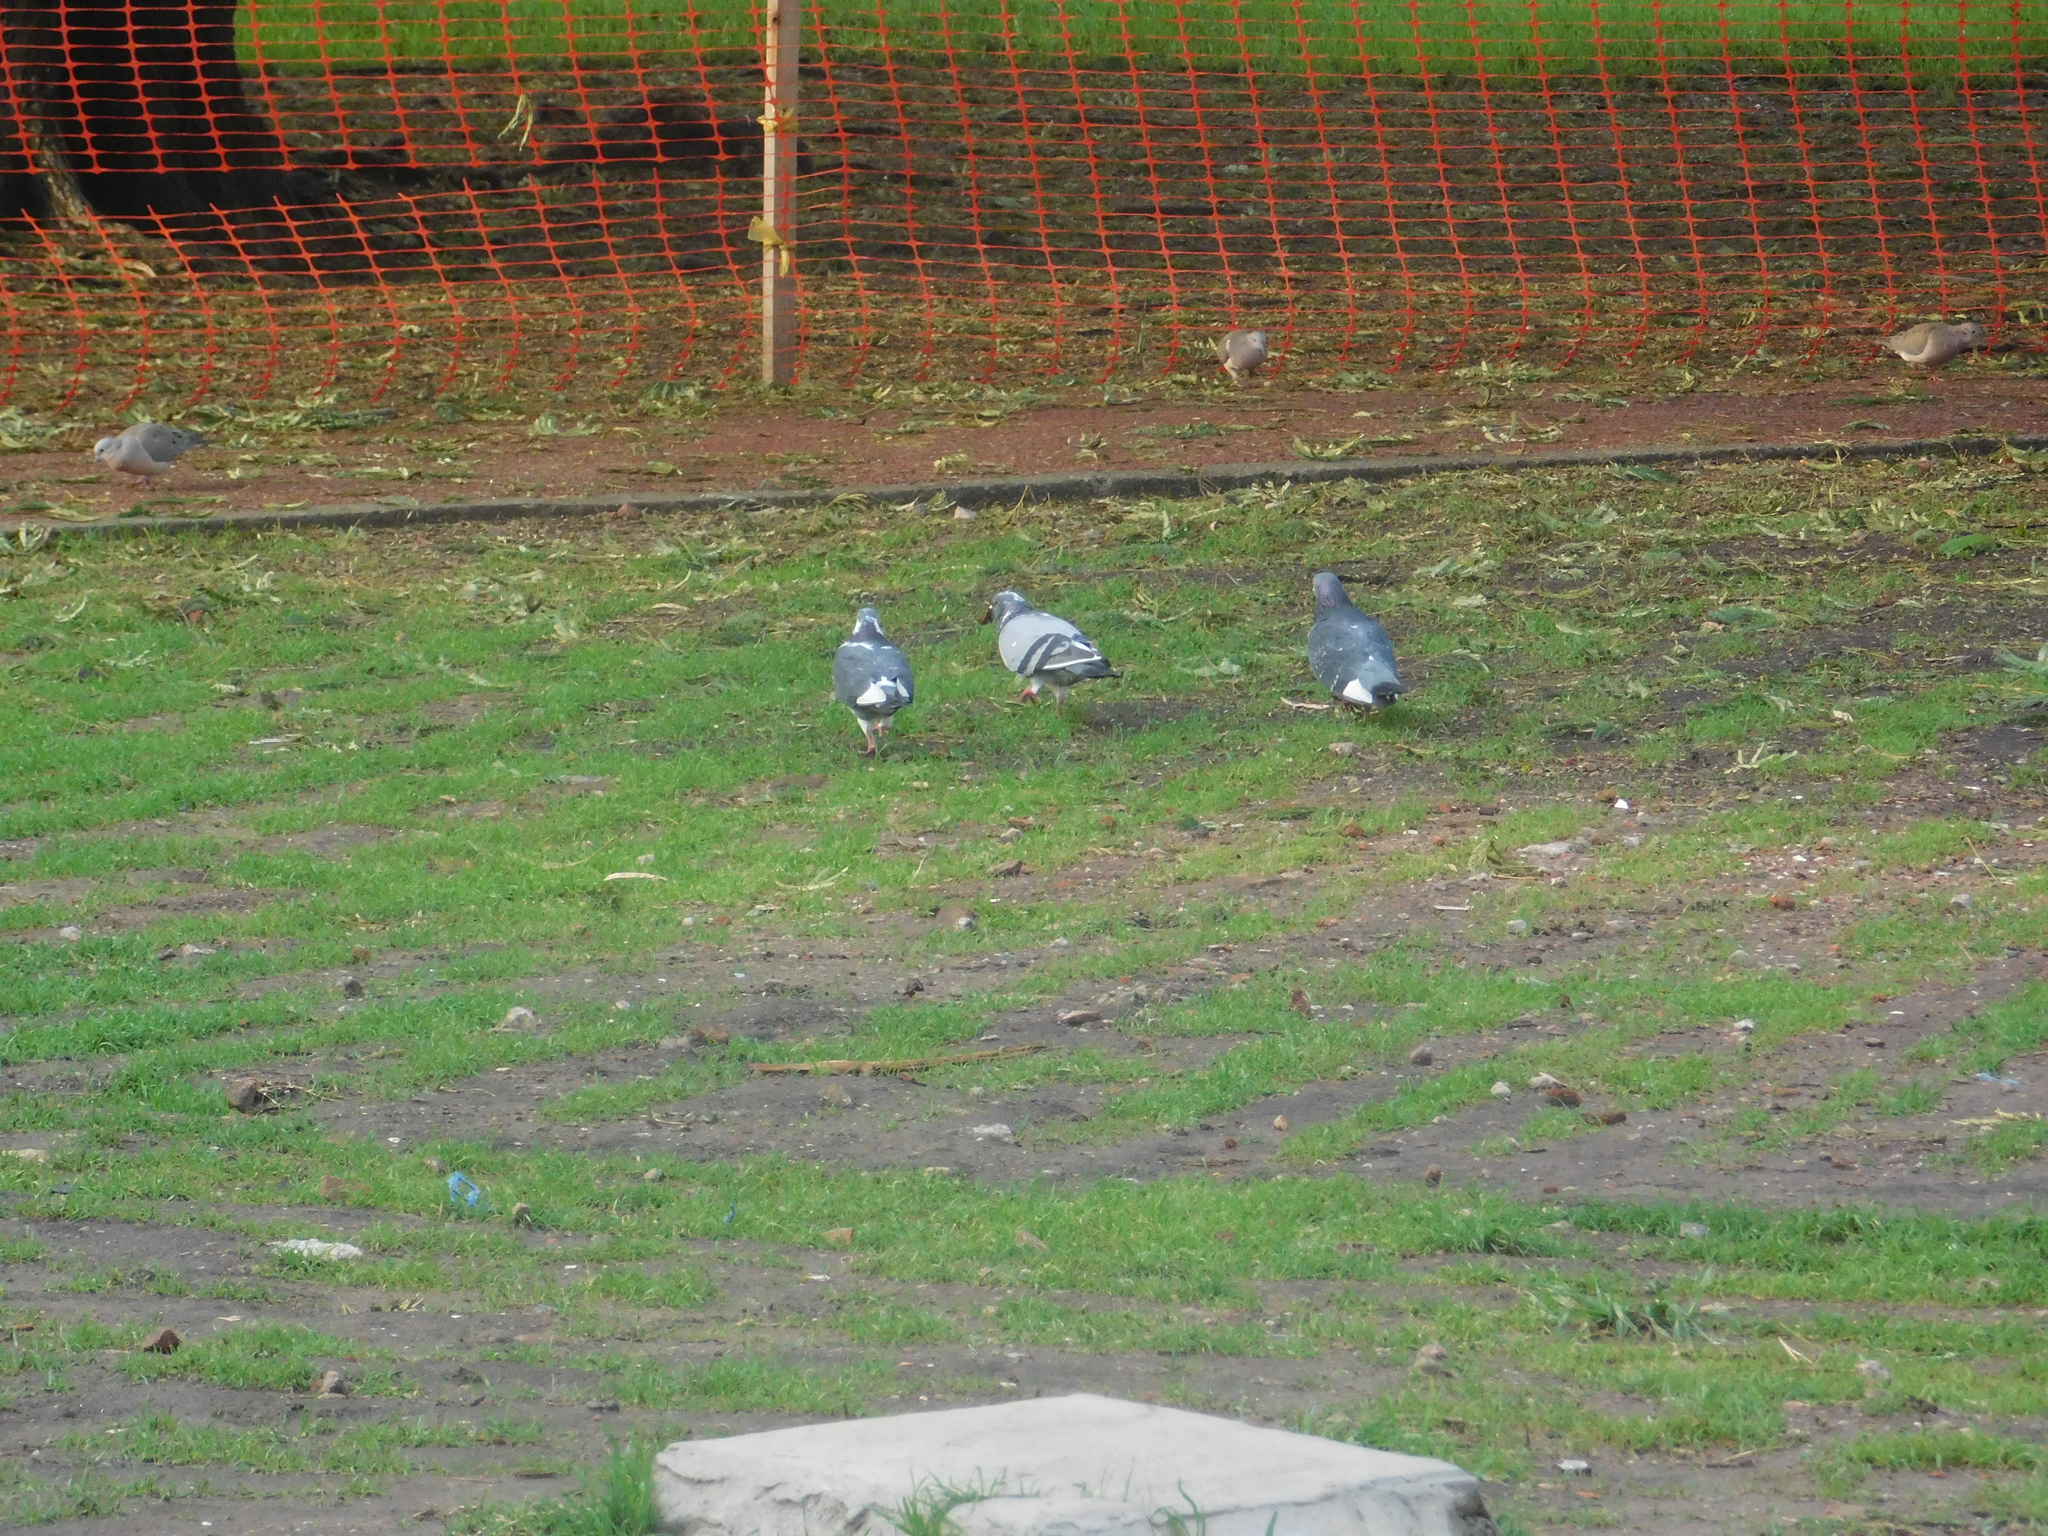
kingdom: Animalia
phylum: Chordata
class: Aves
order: Columbiformes
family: Columbidae
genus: Columba
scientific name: Columba livia
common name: Rock pigeon
